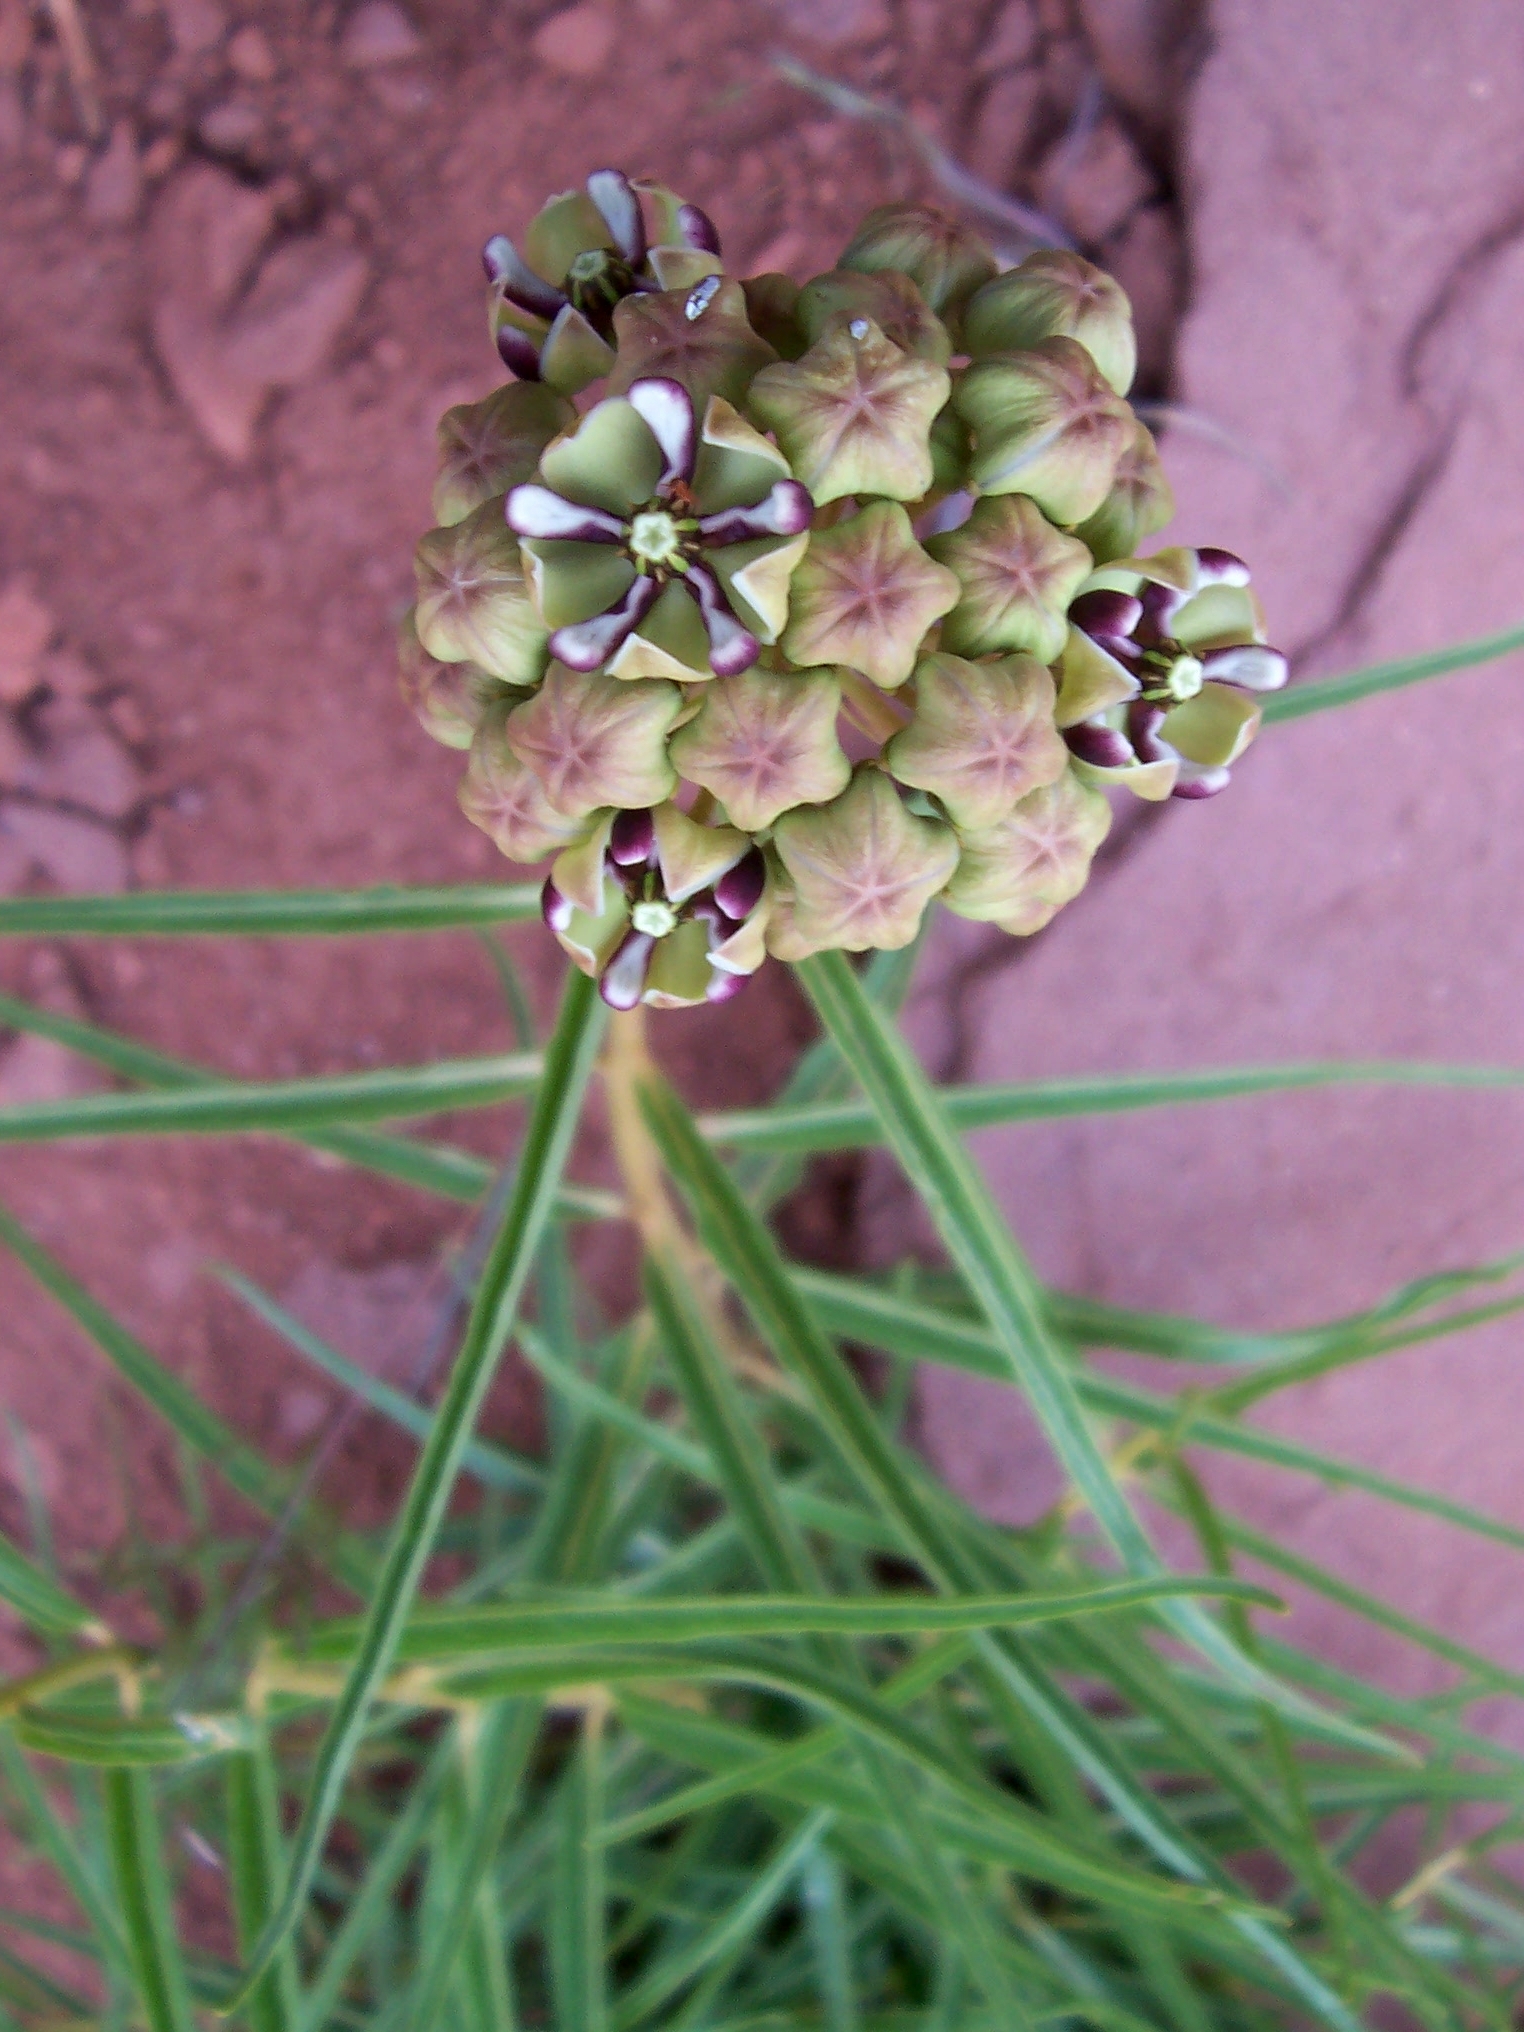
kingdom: Plantae
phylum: Tracheophyta
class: Magnoliopsida
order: Gentianales
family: Apocynaceae
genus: Asclepias
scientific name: Asclepias asperula
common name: Antelope horns
